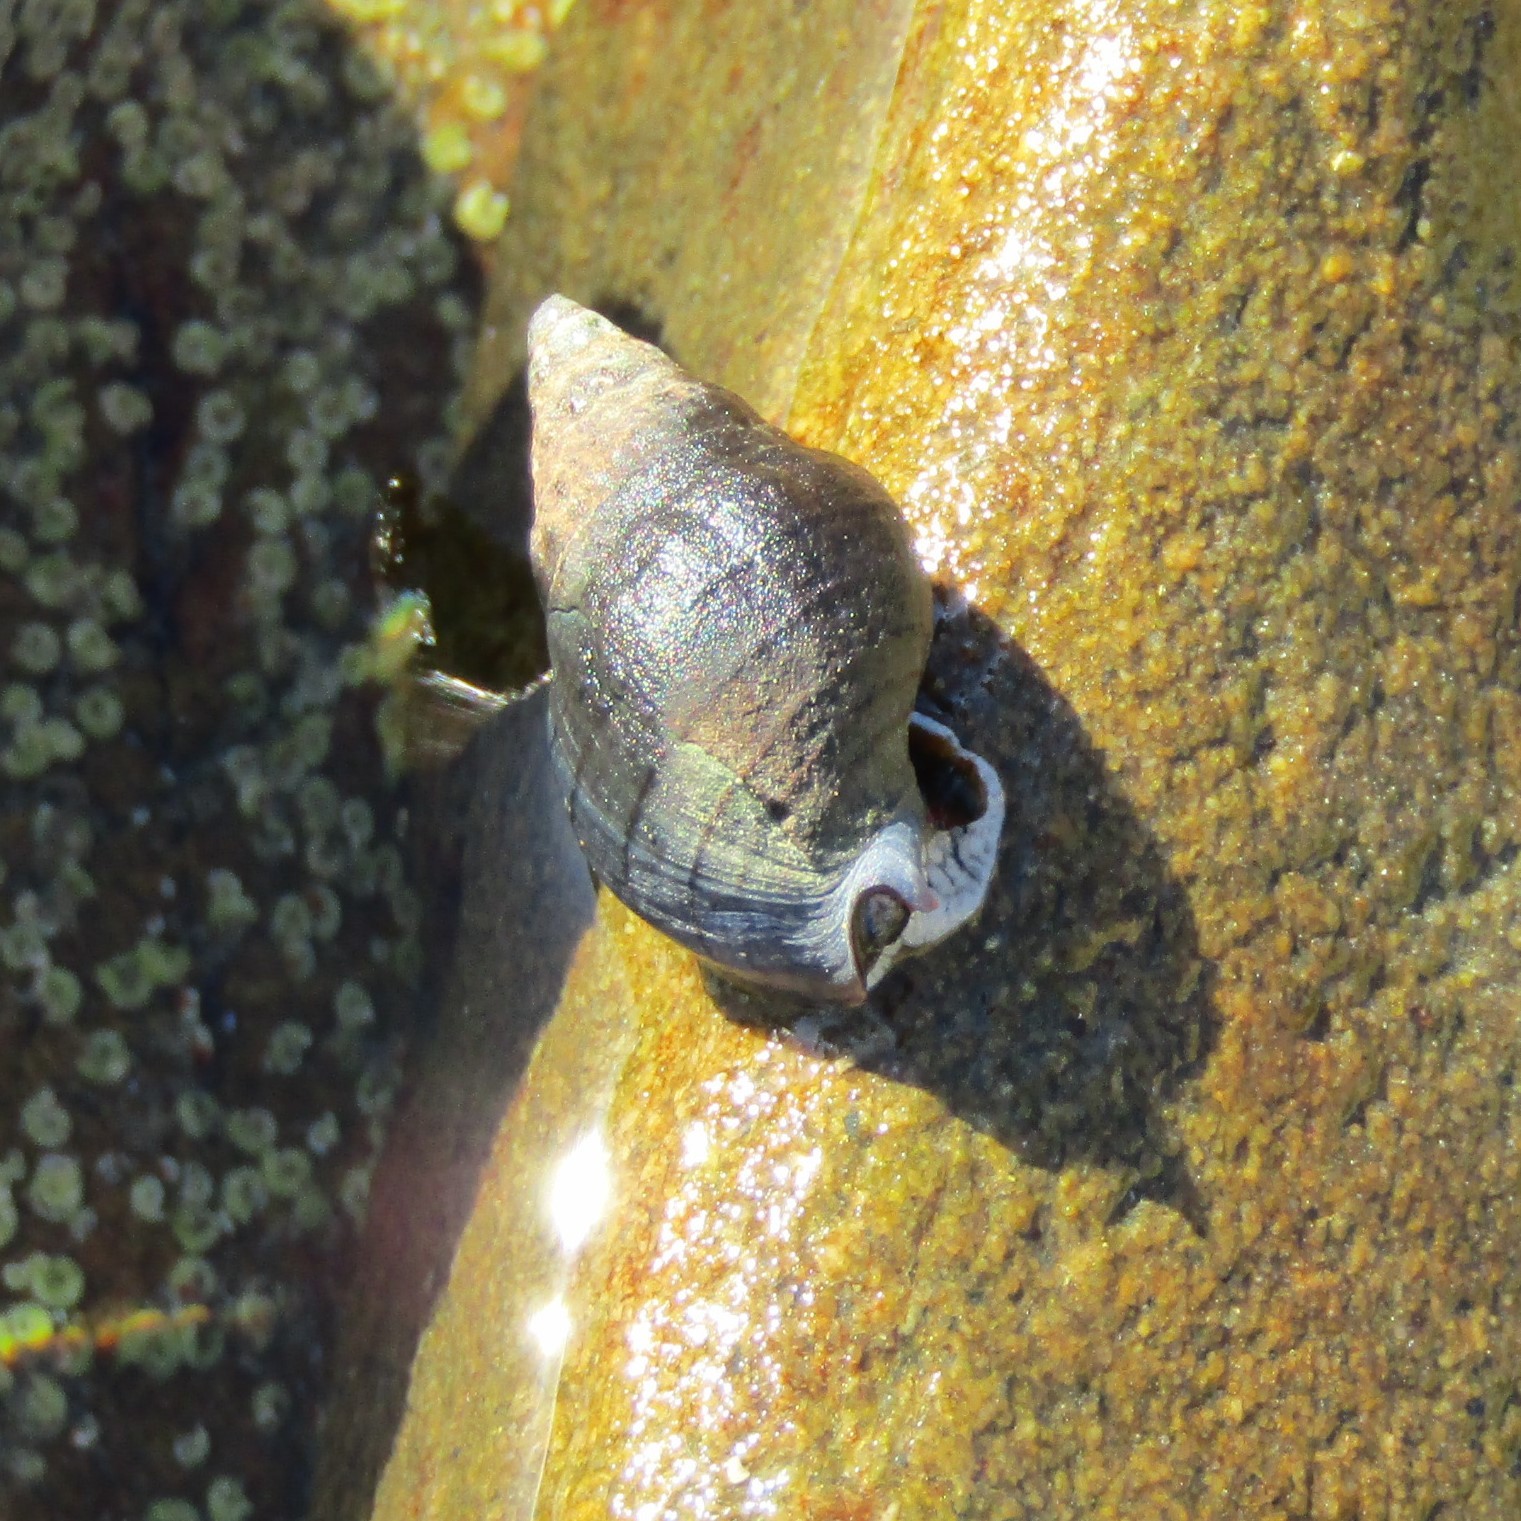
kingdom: Animalia
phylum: Mollusca
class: Gastropoda
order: Neogastropoda
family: Cominellidae
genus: Cominella
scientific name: Cominella virgata
